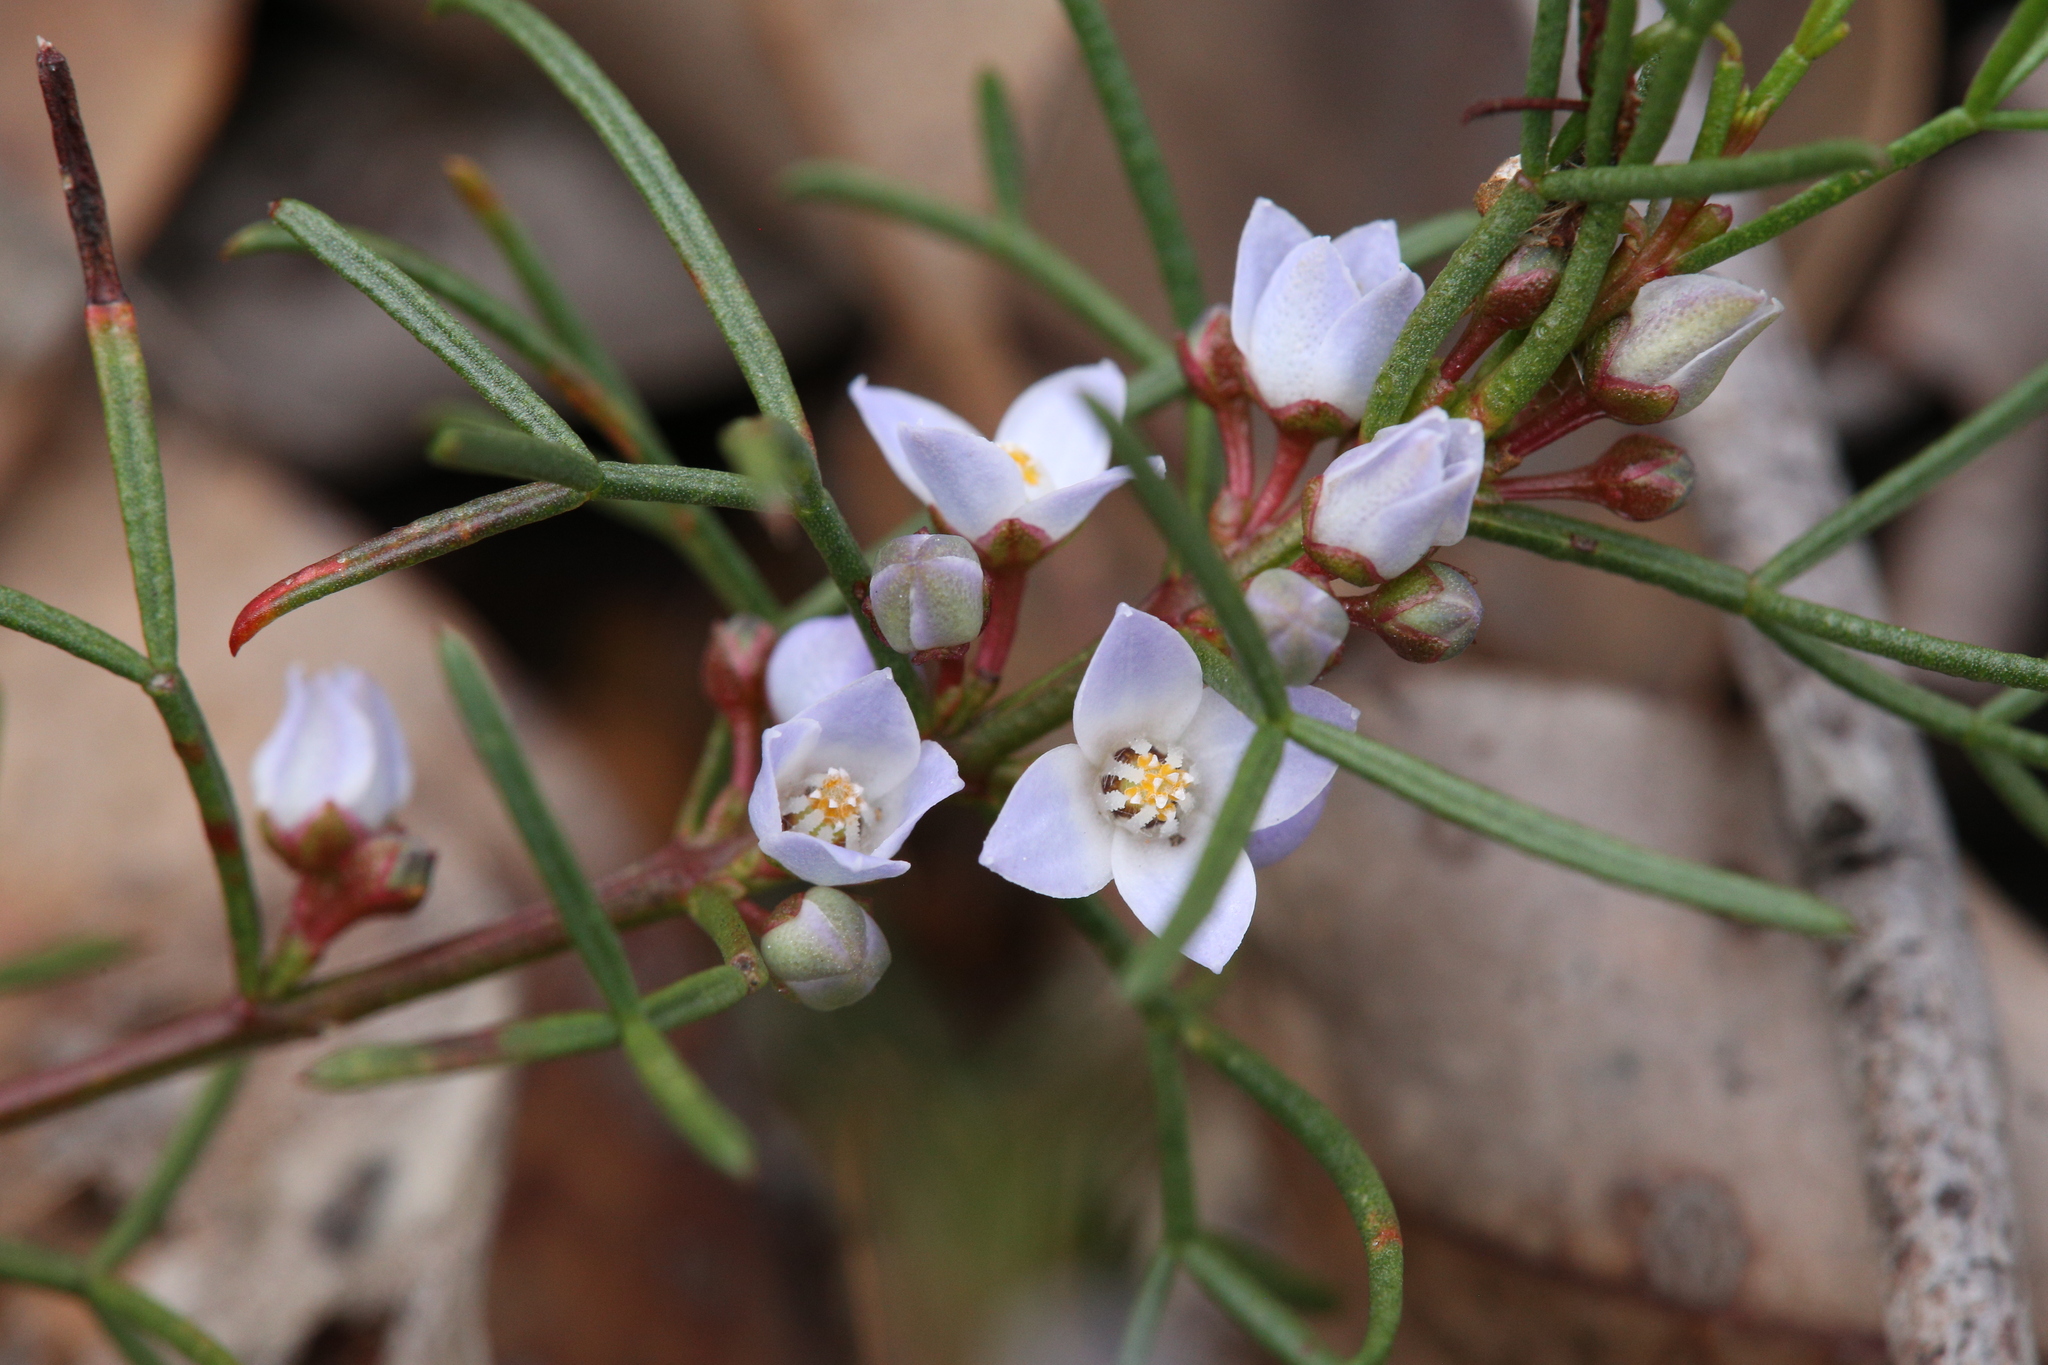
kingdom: Plantae
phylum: Tracheophyta
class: Magnoliopsida
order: Sapindales
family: Rutaceae
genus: Cyanothamnus
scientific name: Cyanothamnus ramosus
